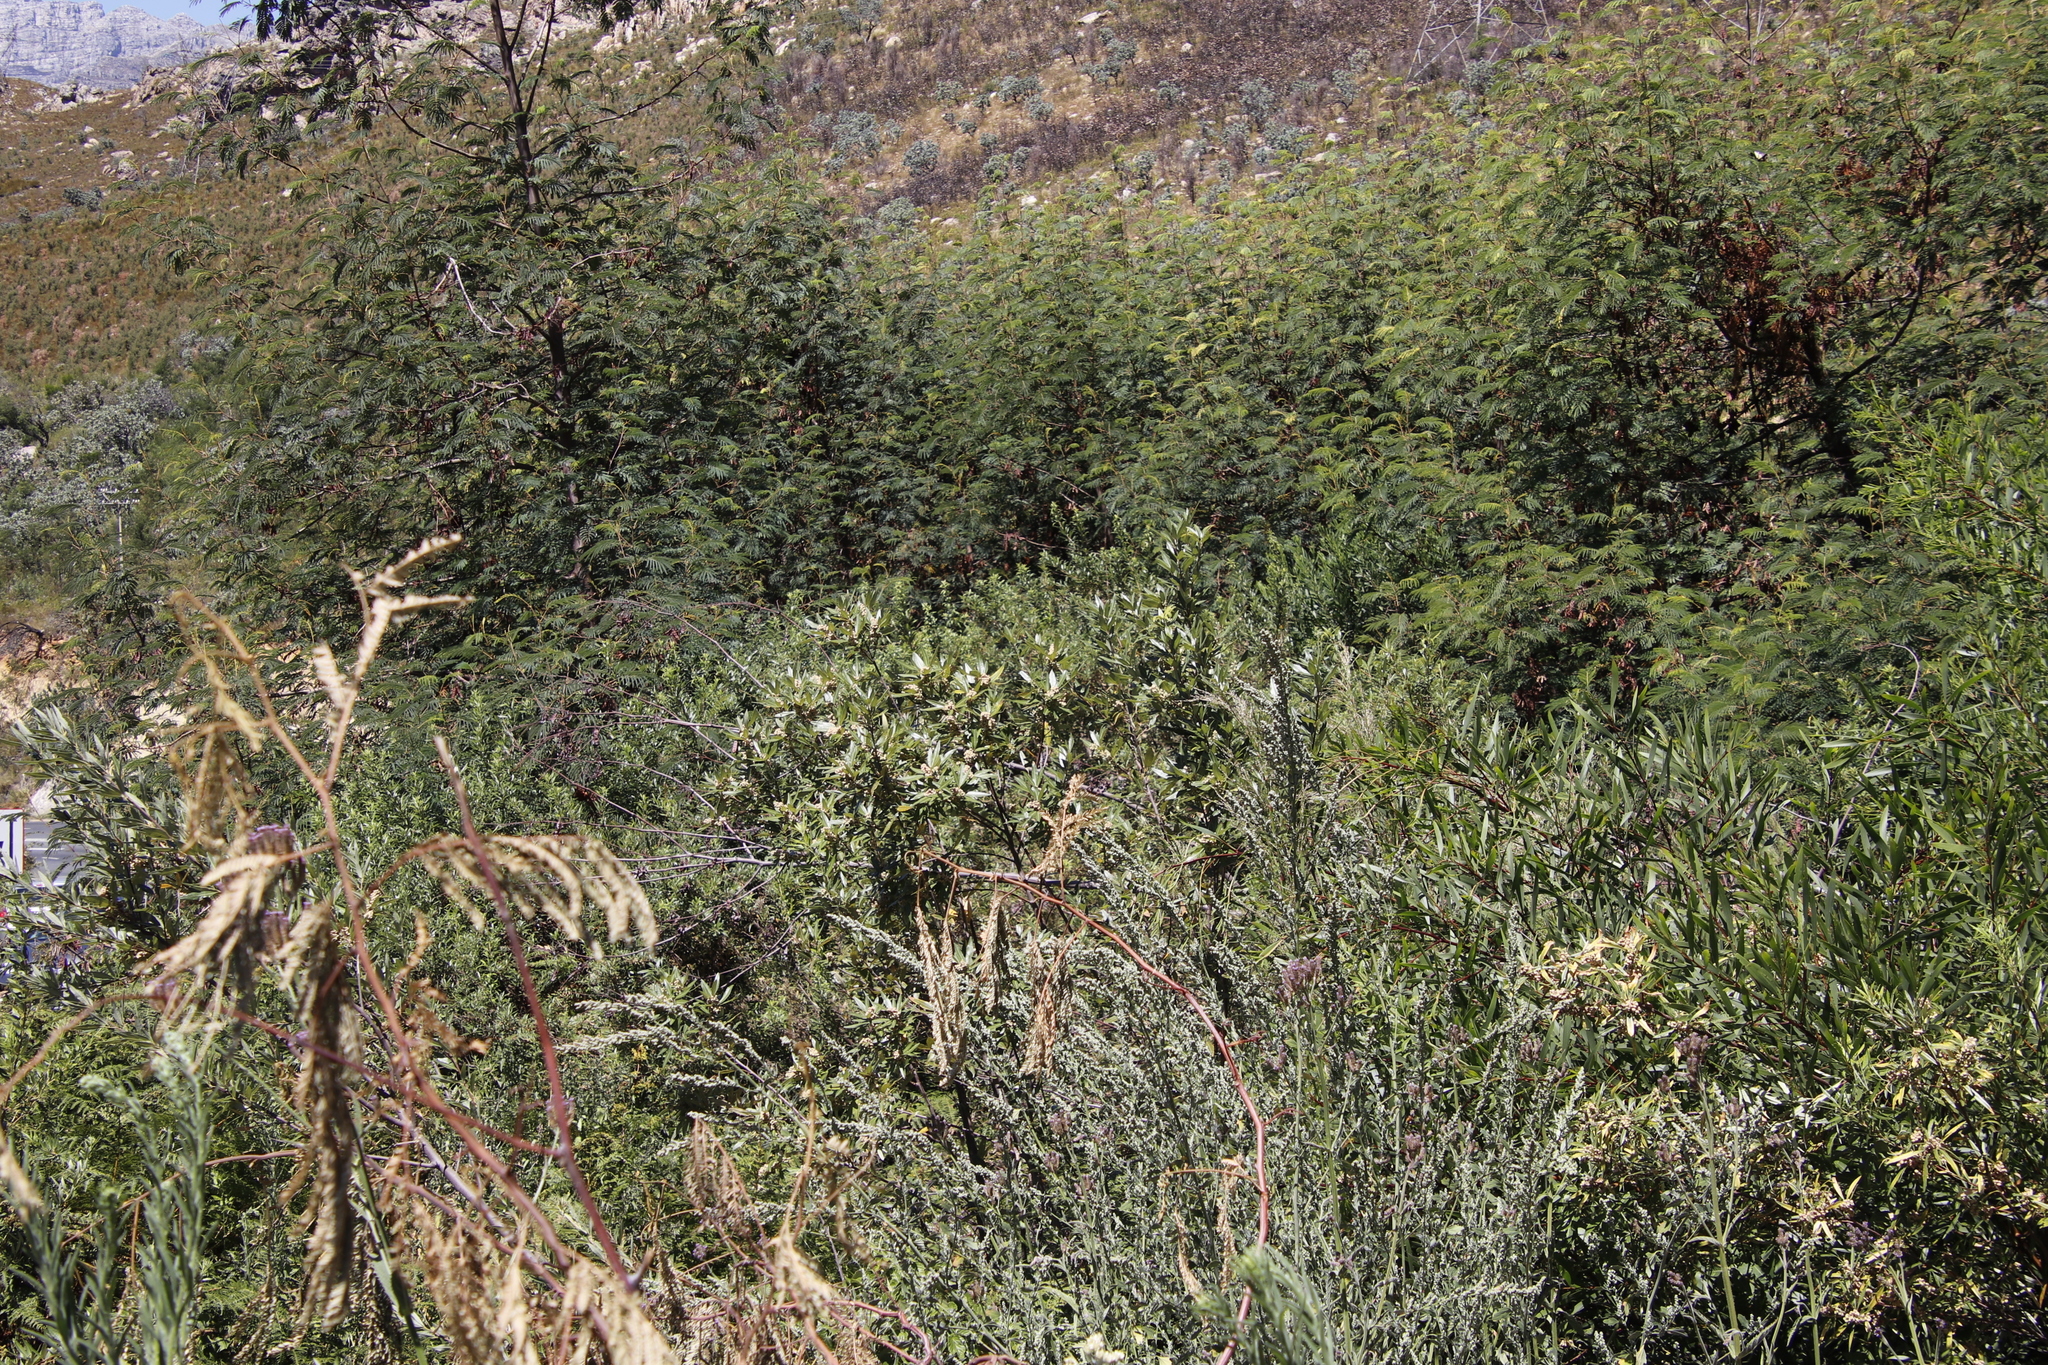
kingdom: Plantae
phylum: Tracheophyta
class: Magnoliopsida
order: Sapindales
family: Anacardiaceae
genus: Searsia
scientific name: Searsia angustifolia
